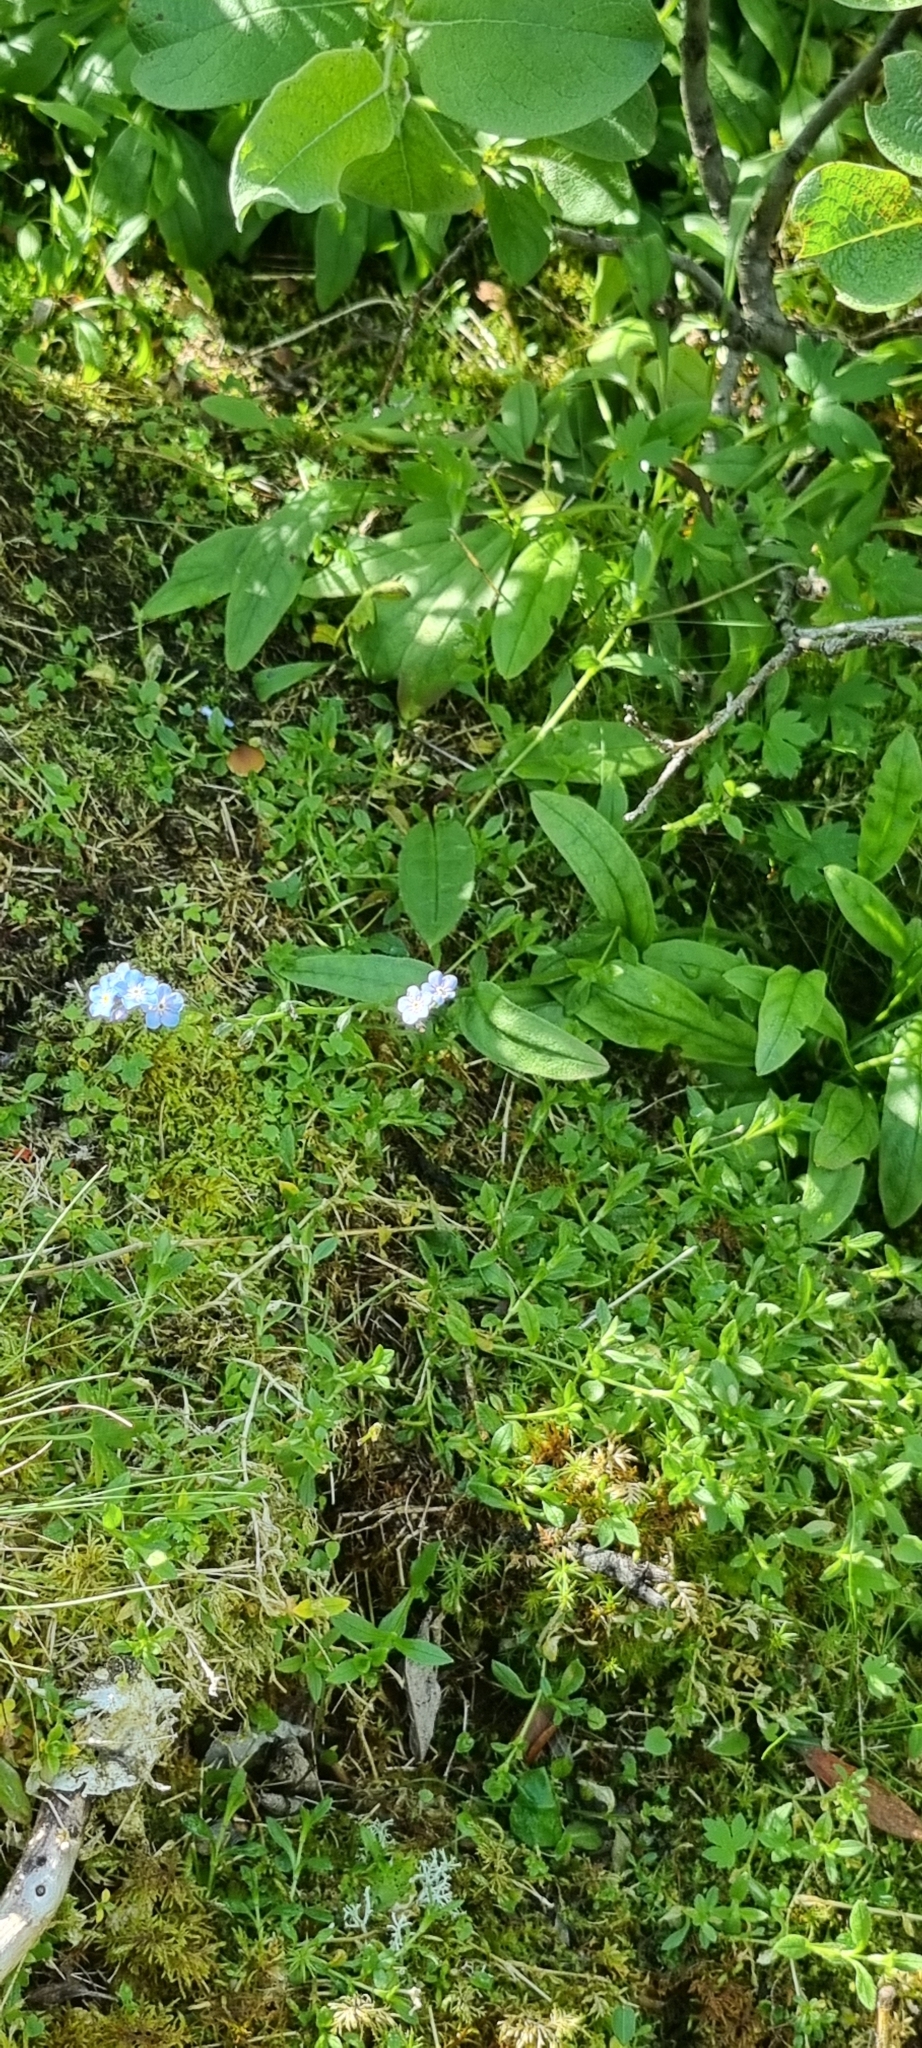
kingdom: Plantae
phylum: Tracheophyta
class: Magnoliopsida
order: Boraginales
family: Boraginaceae
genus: Myosotis
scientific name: Myosotis scorpioides
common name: Water forget-me-not
